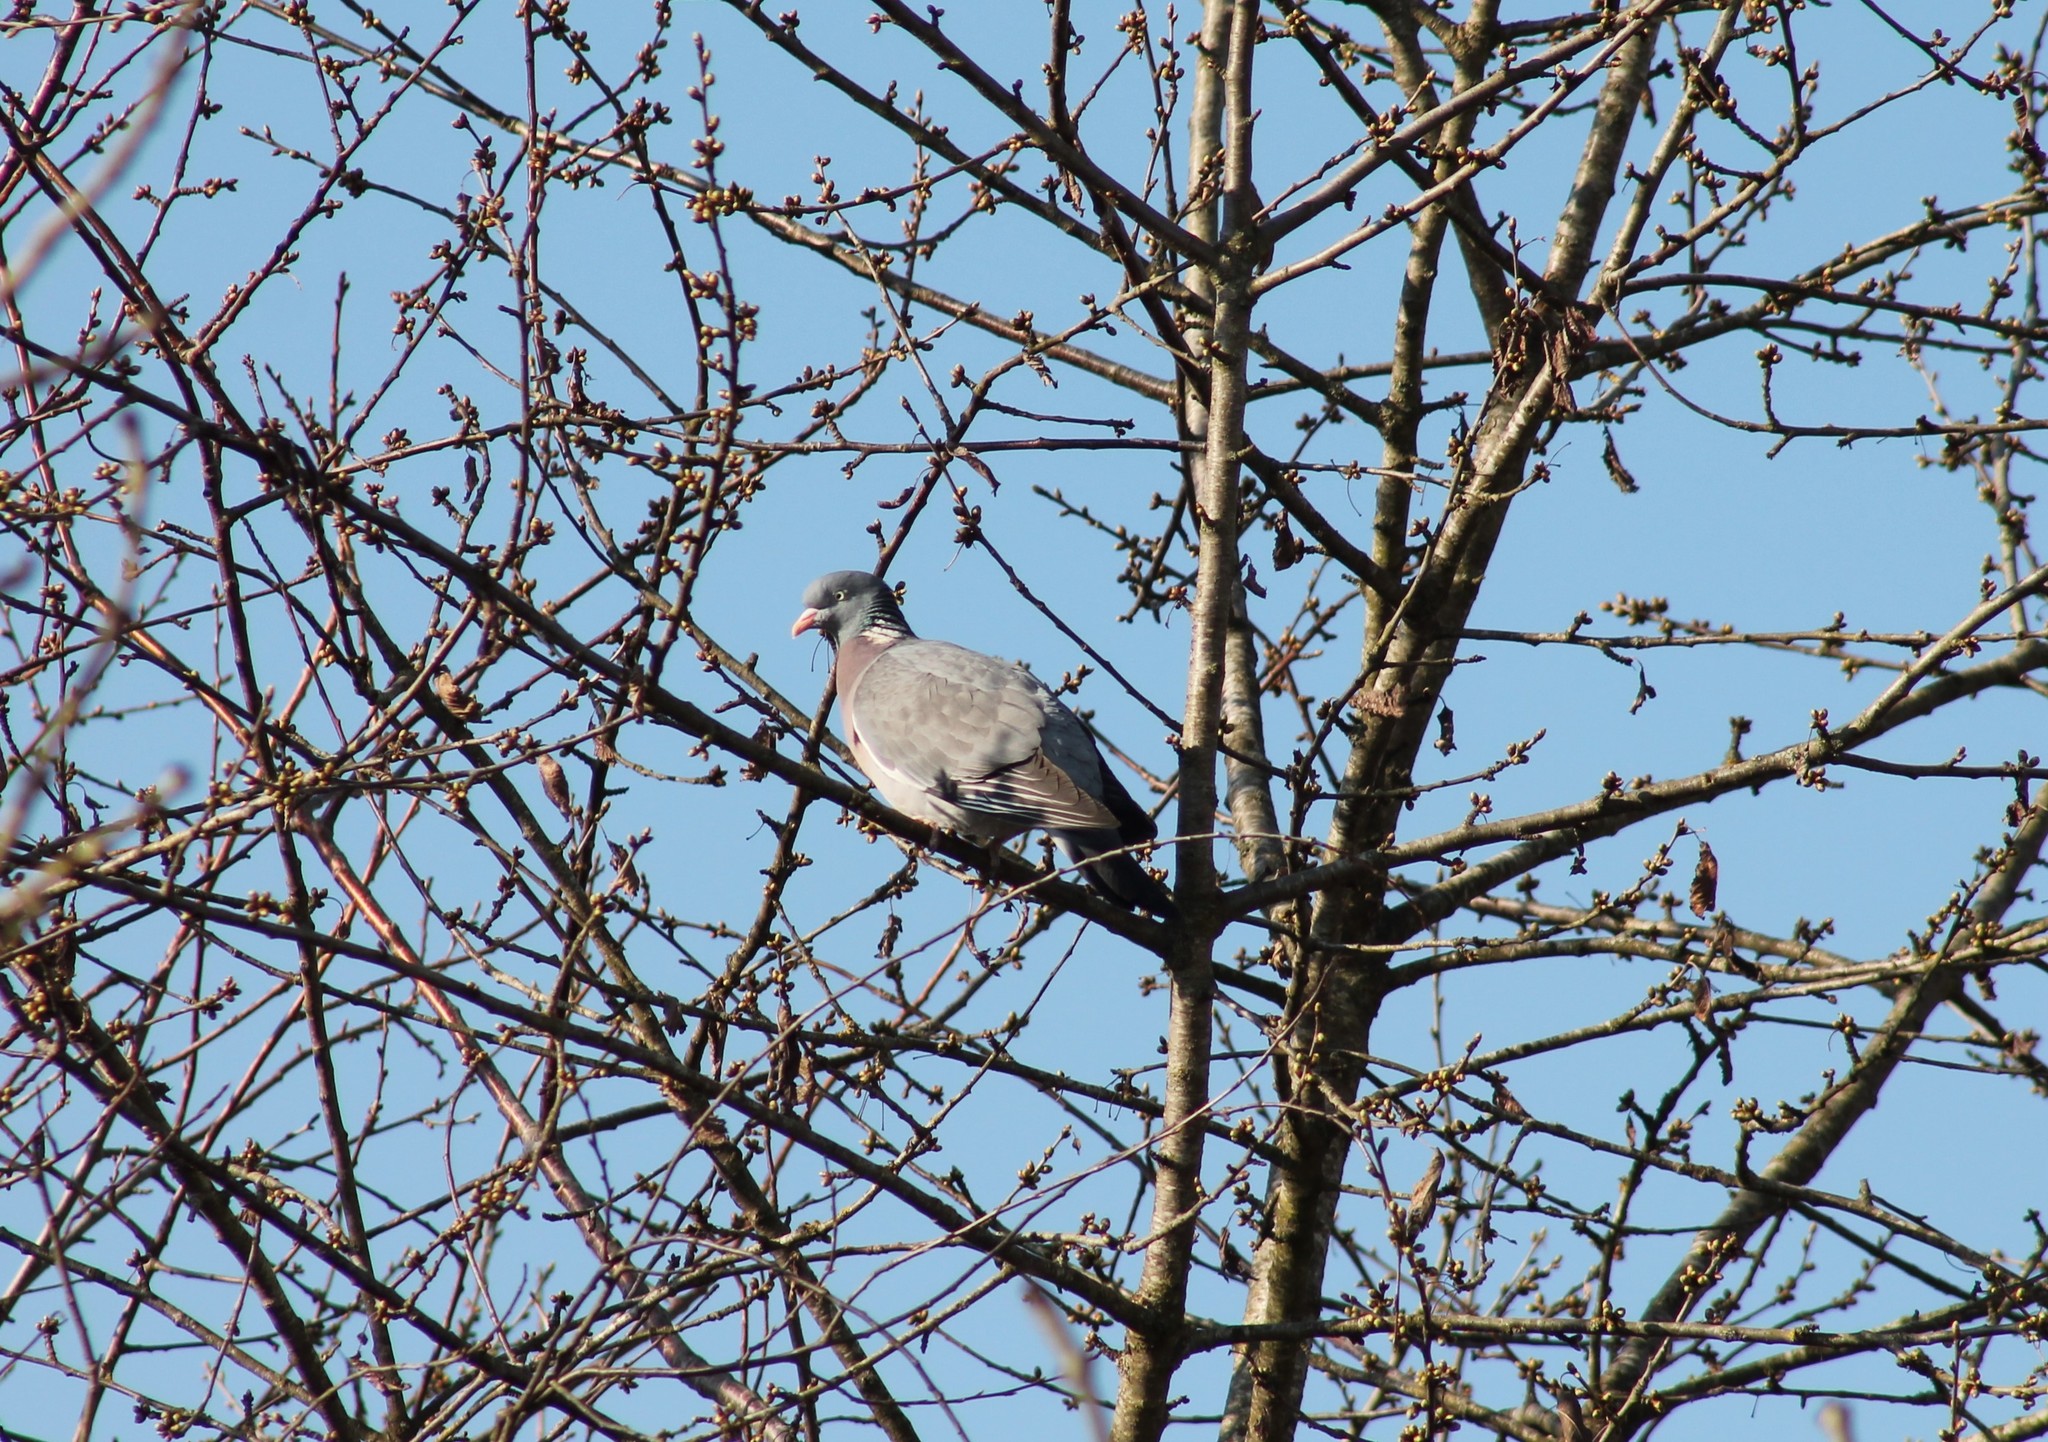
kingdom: Animalia
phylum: Chordata
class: Aves
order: Columbiformes
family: Columbidae
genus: Columba
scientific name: Columba palumbus
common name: Common wood pigeon
